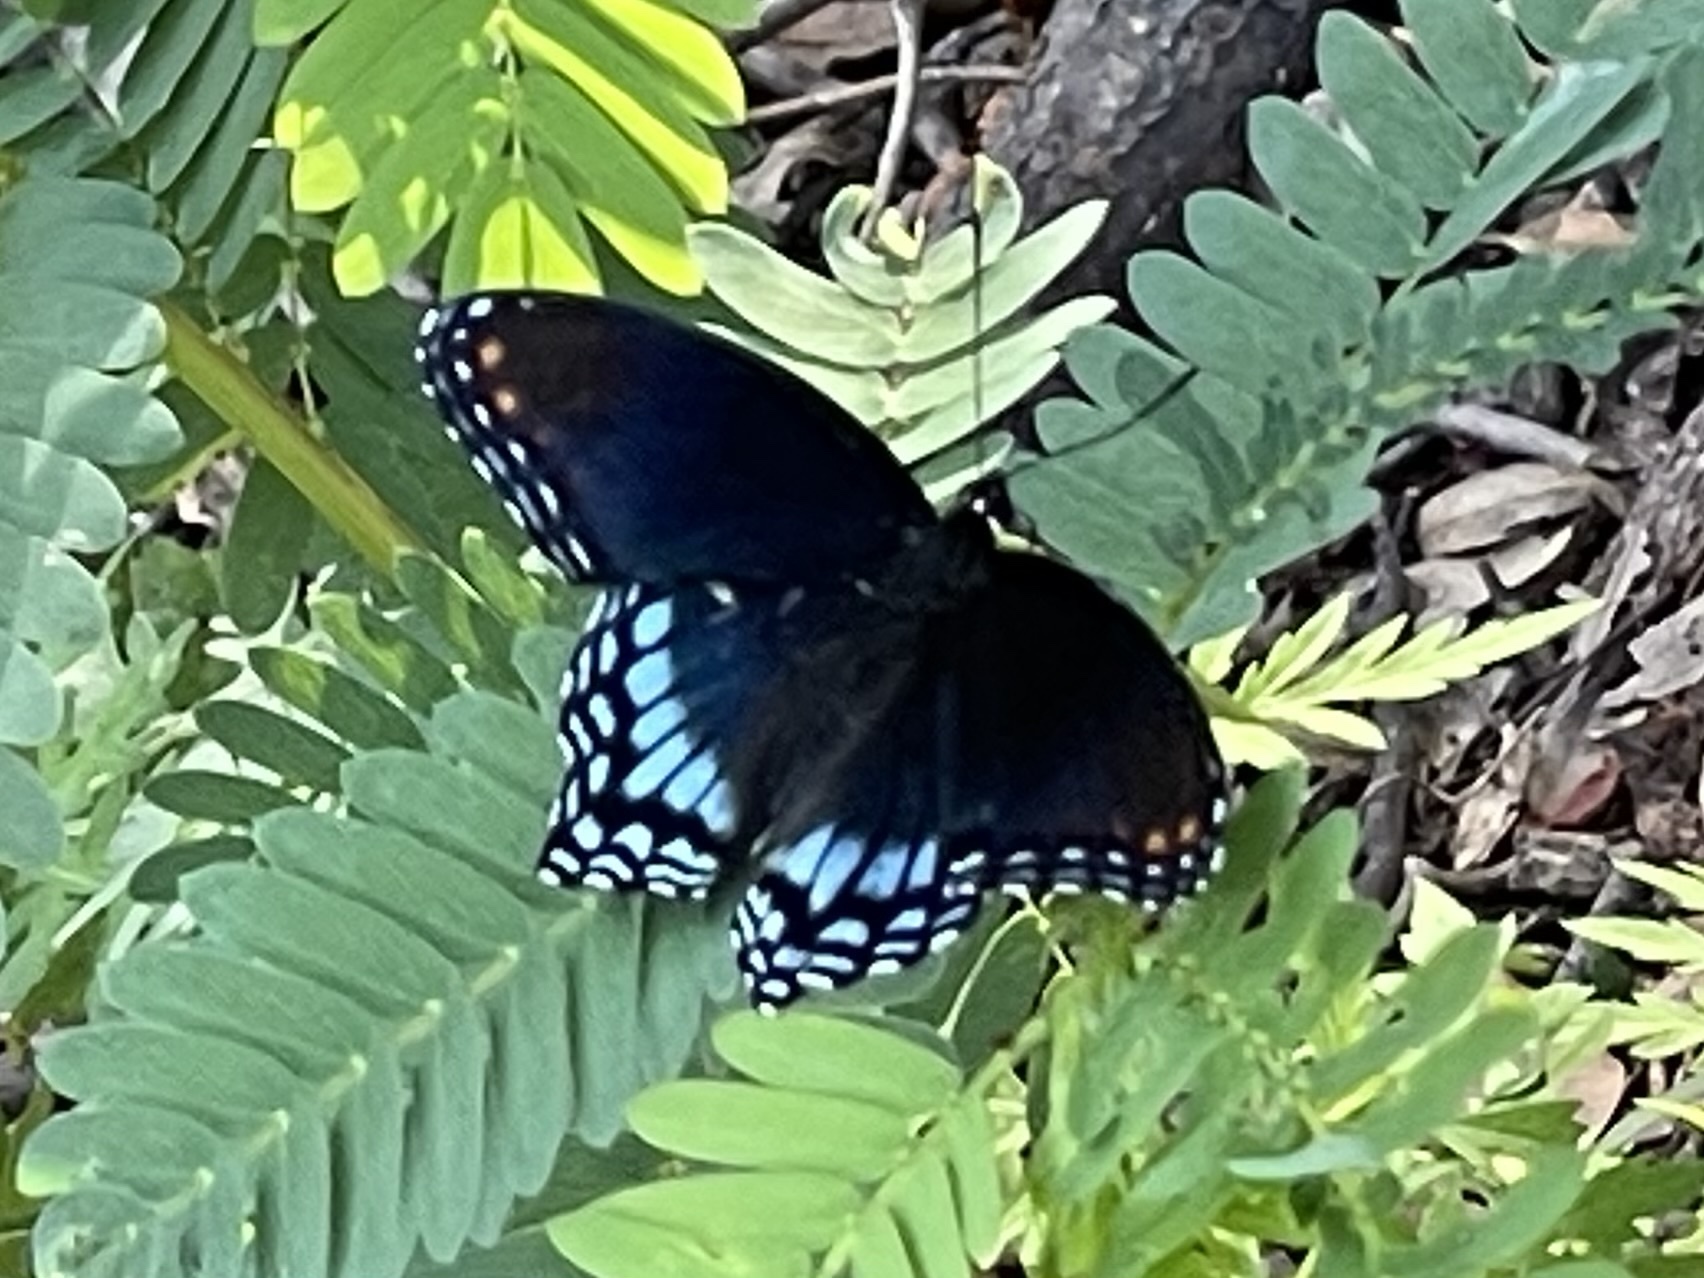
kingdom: Animalia
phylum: Arthropoda
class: Insecta
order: Lepidoptera
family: Nymphalidae
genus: Limenitis
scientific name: Limenitis astyanax
